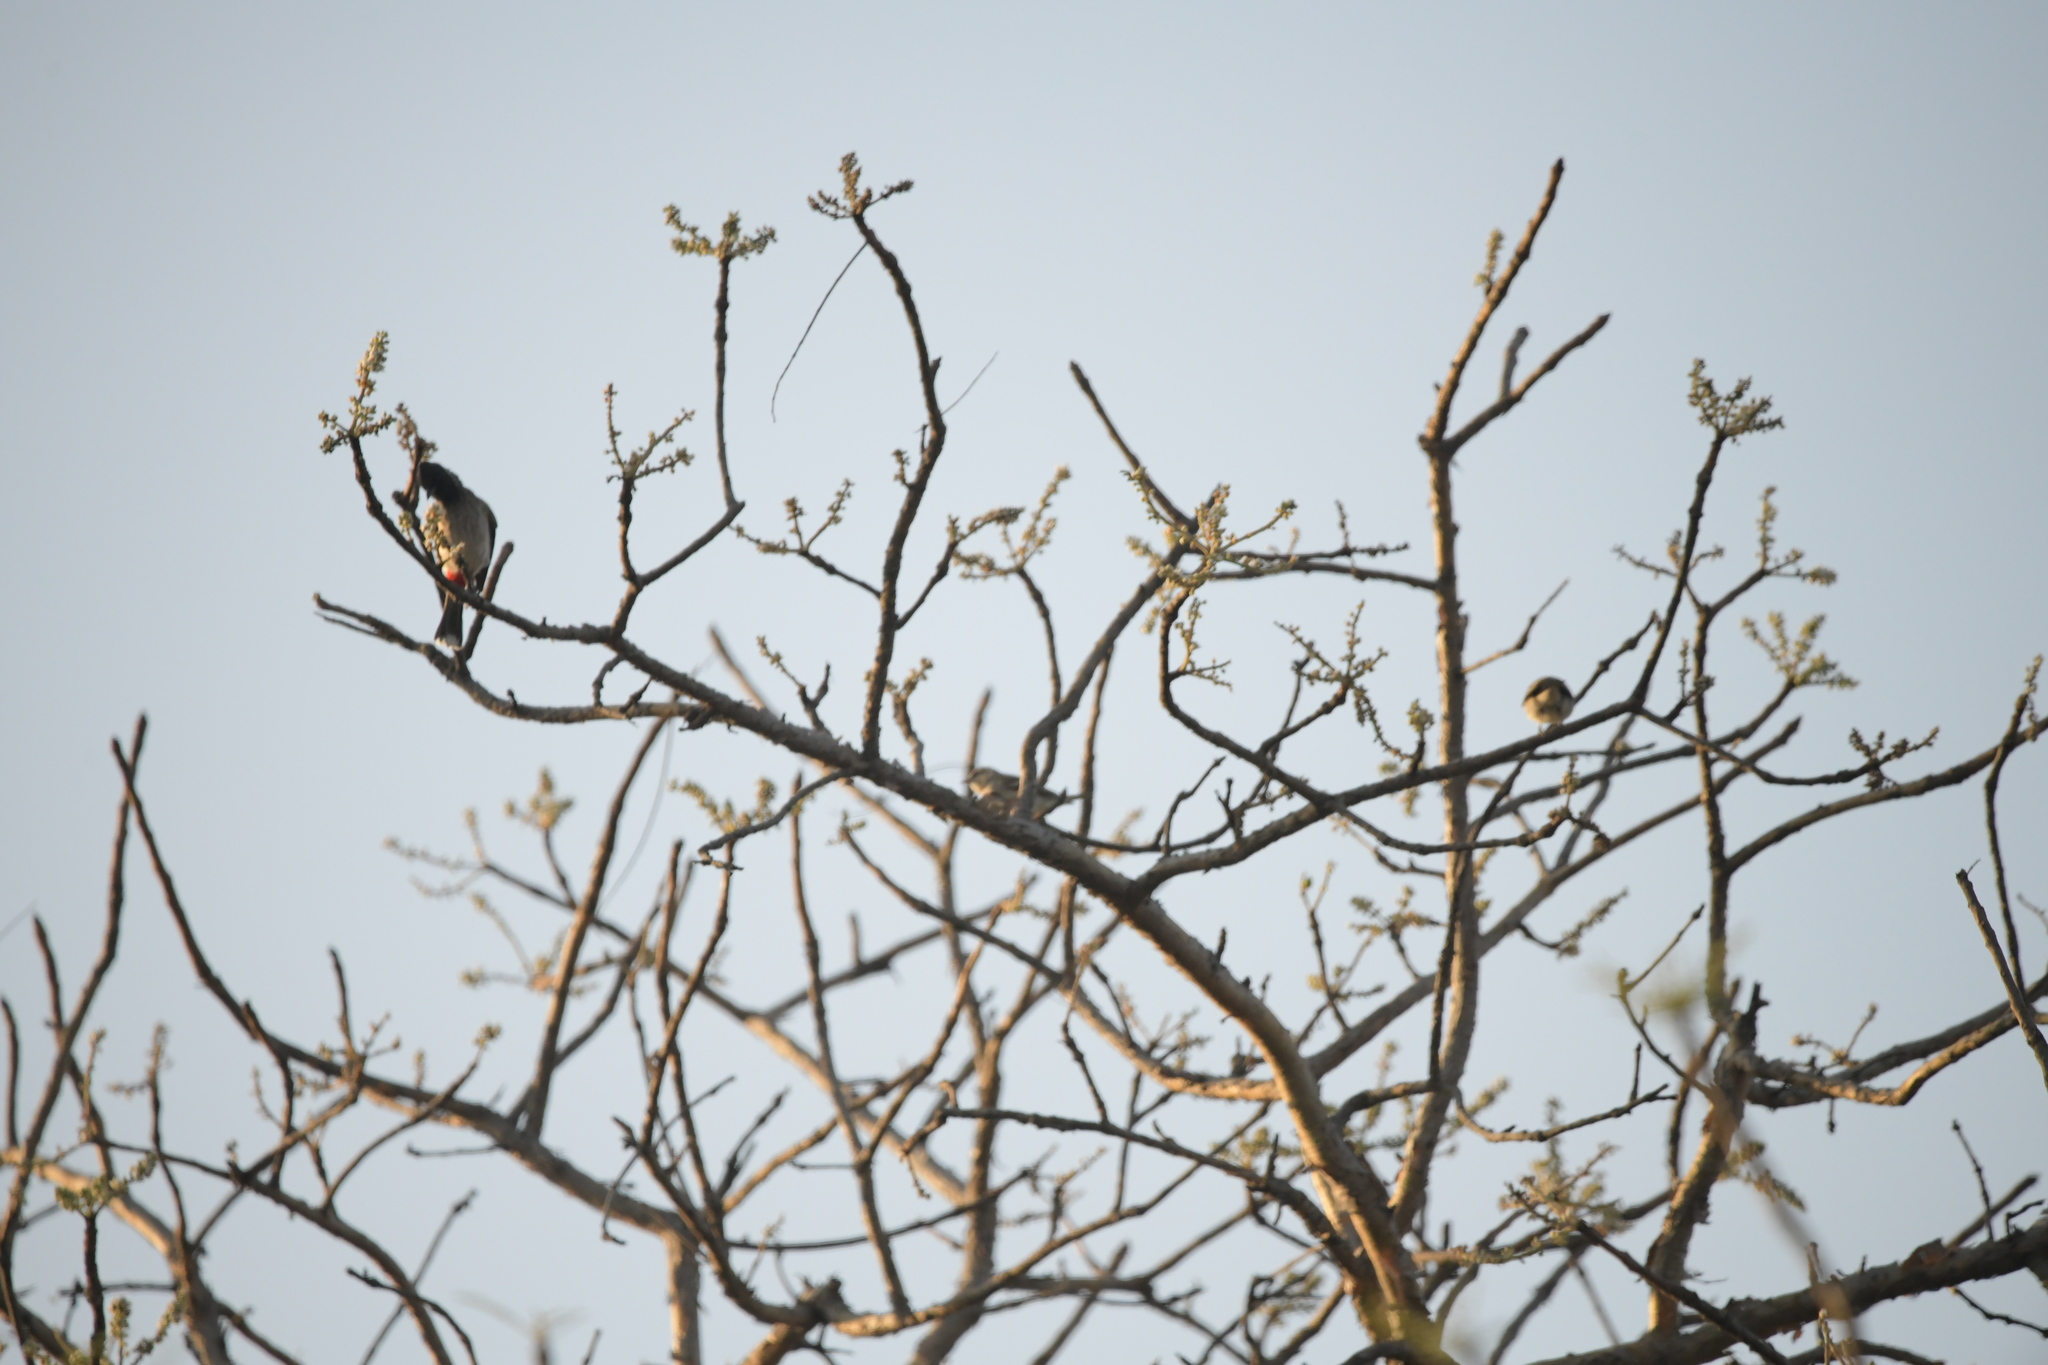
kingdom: Animalia
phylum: Chordata
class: Aves
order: Passeriformes
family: Pycnonotidae
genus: Pycnonotus
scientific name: Pycnonotus cafer
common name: Red-vented bulbul
